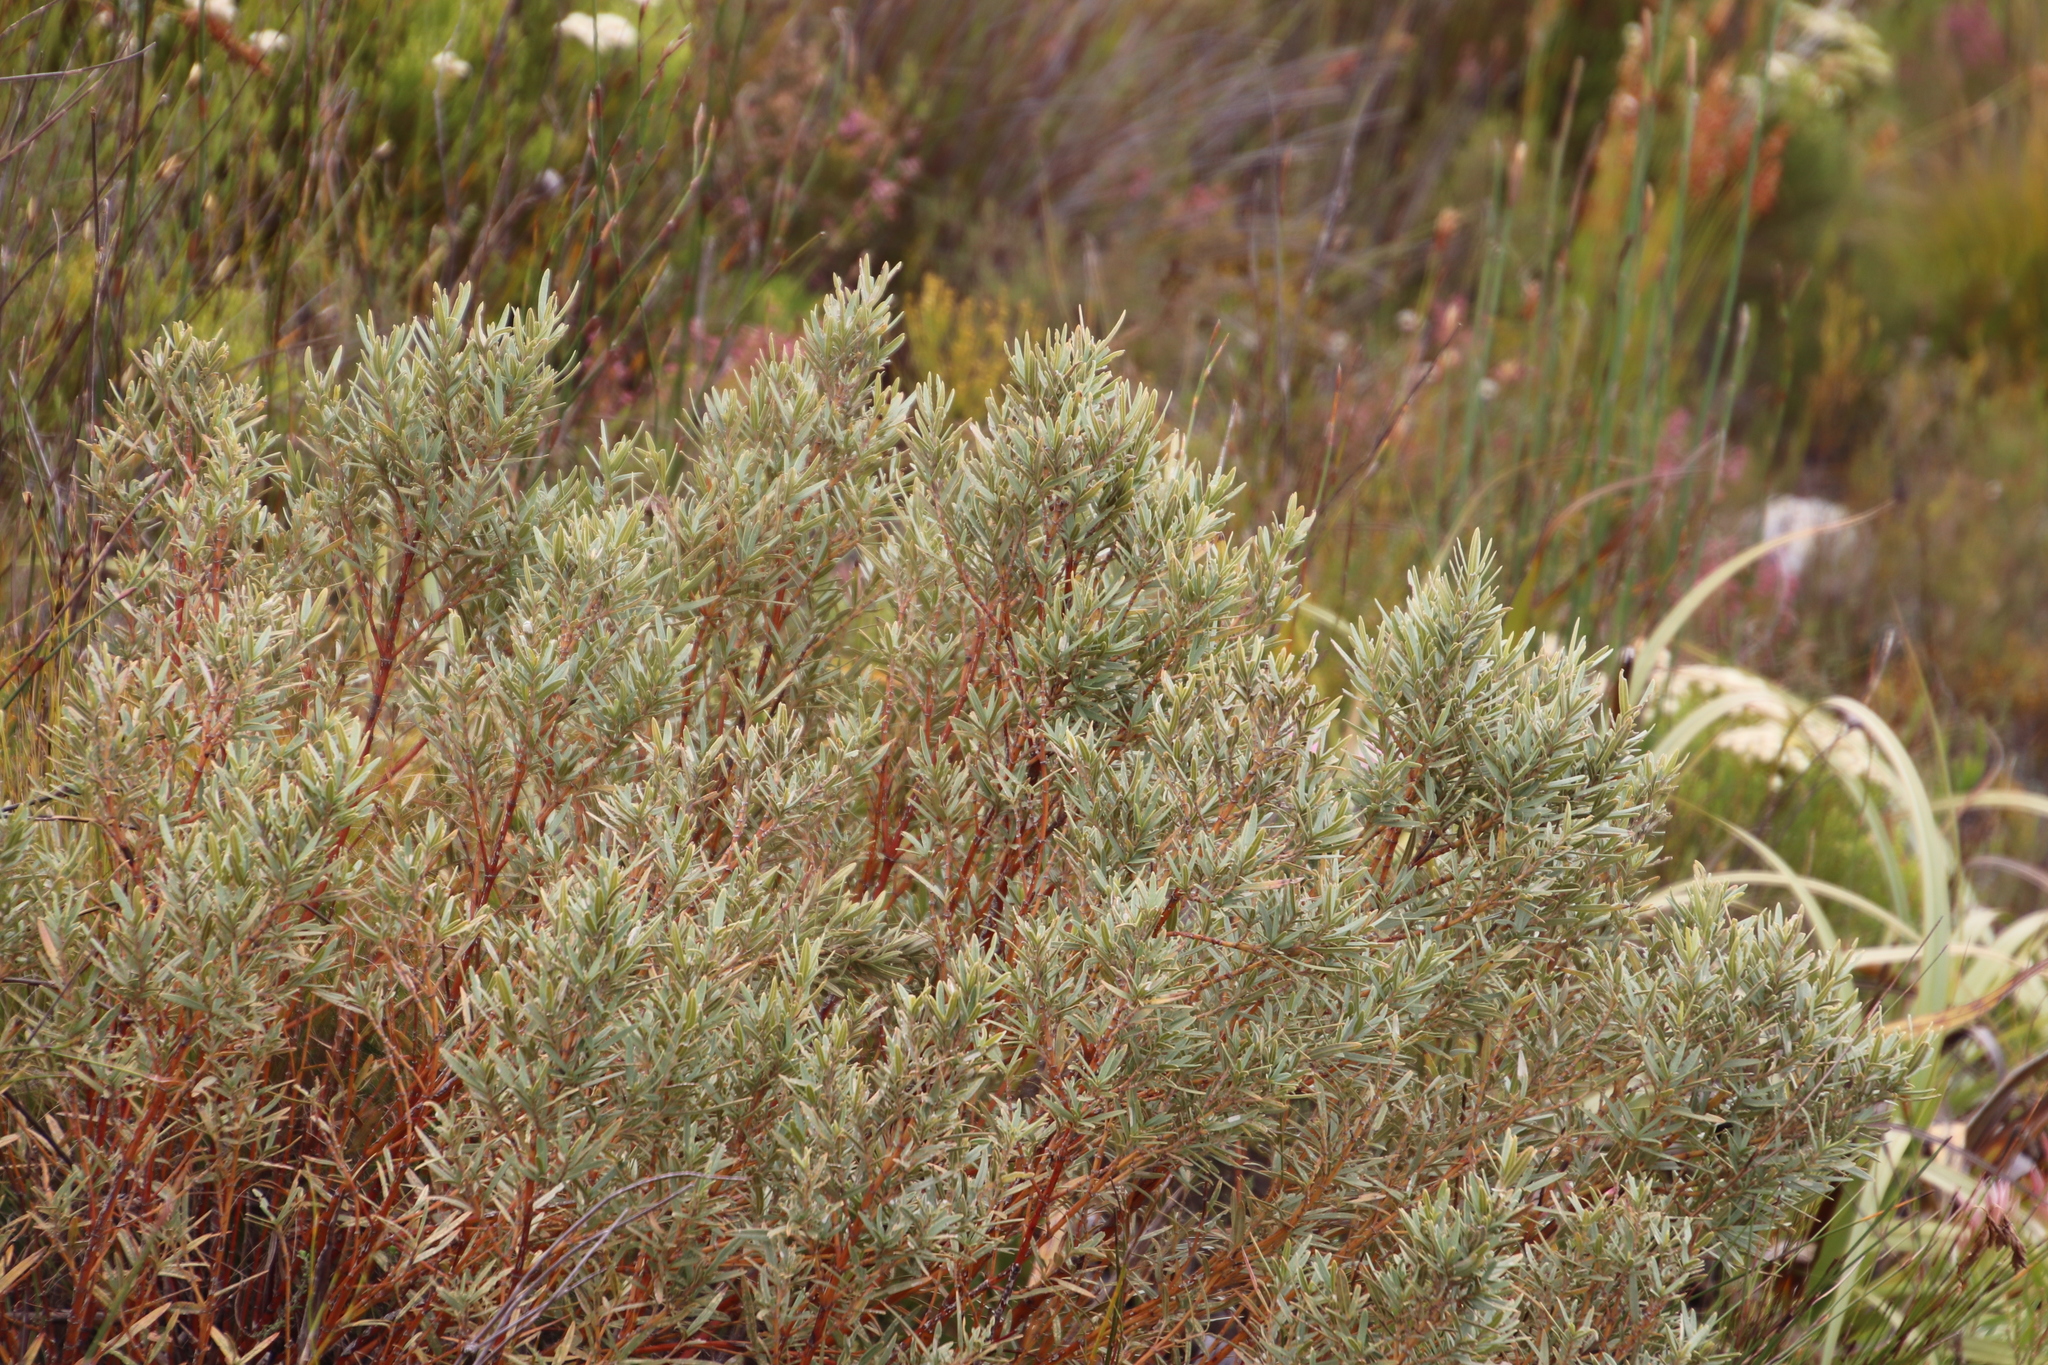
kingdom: Plantae
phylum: Tracheophyta
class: Magnoliopsida
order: Cornales
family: Grubbiaceae
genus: Grubbia
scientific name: Grubbia tomentosa
